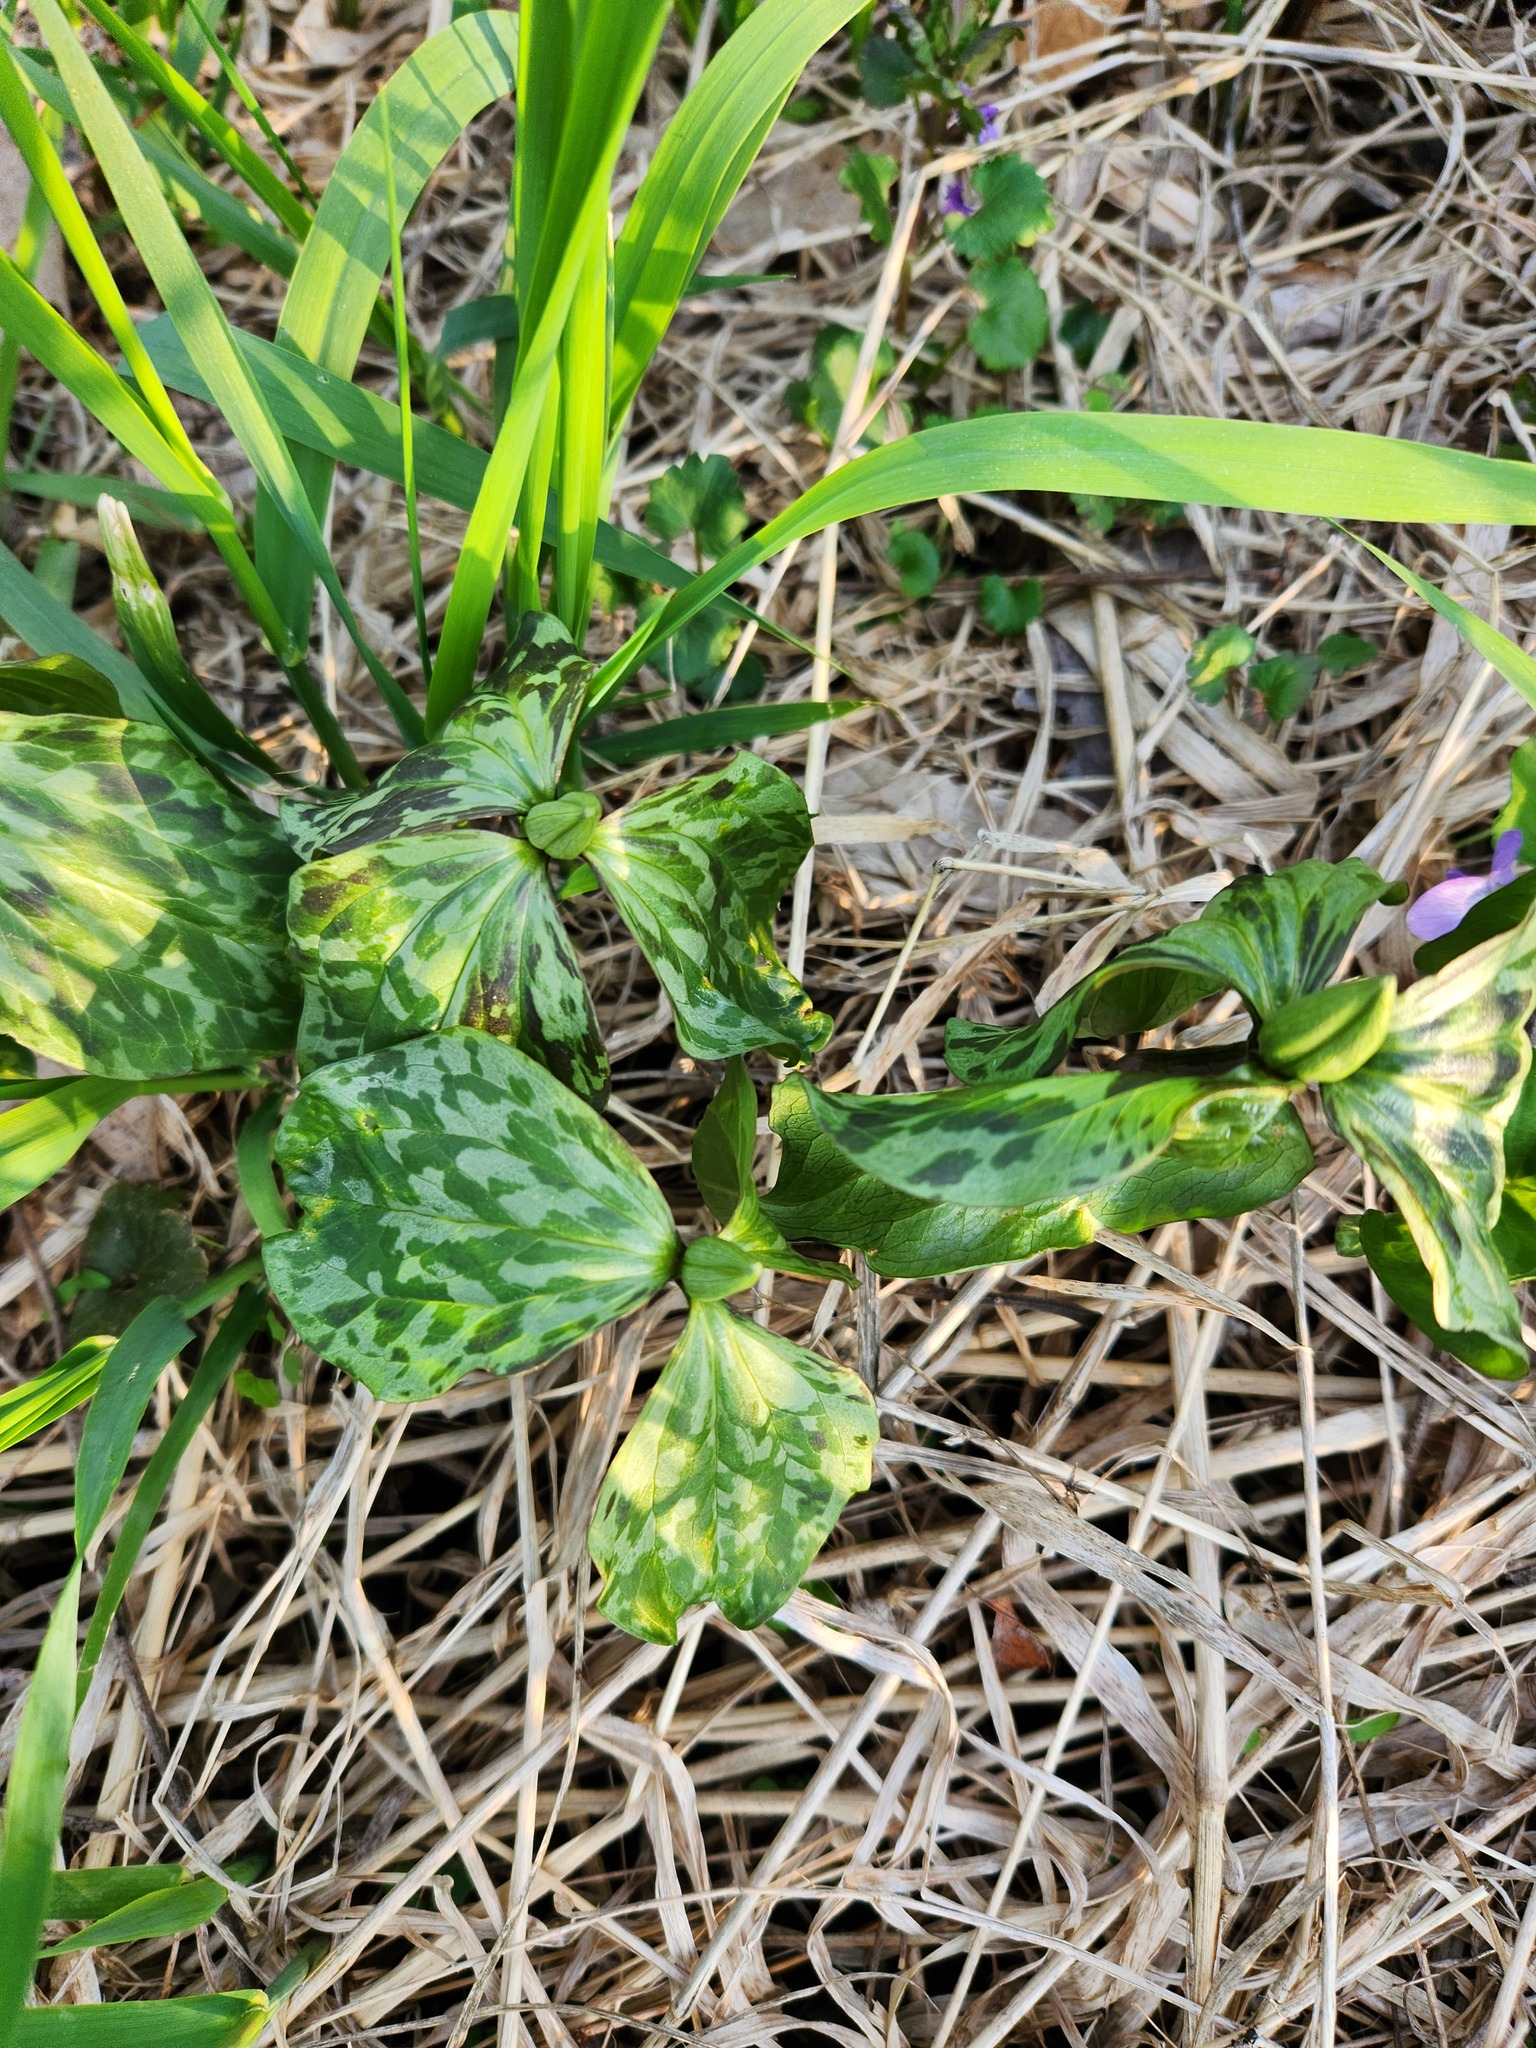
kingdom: Plantae
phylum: Tracheophyta
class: Liliopsida
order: Liliales
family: Melanthiaceae
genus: Trillium
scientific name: Trillium recurvatum
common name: Bloody butcher
